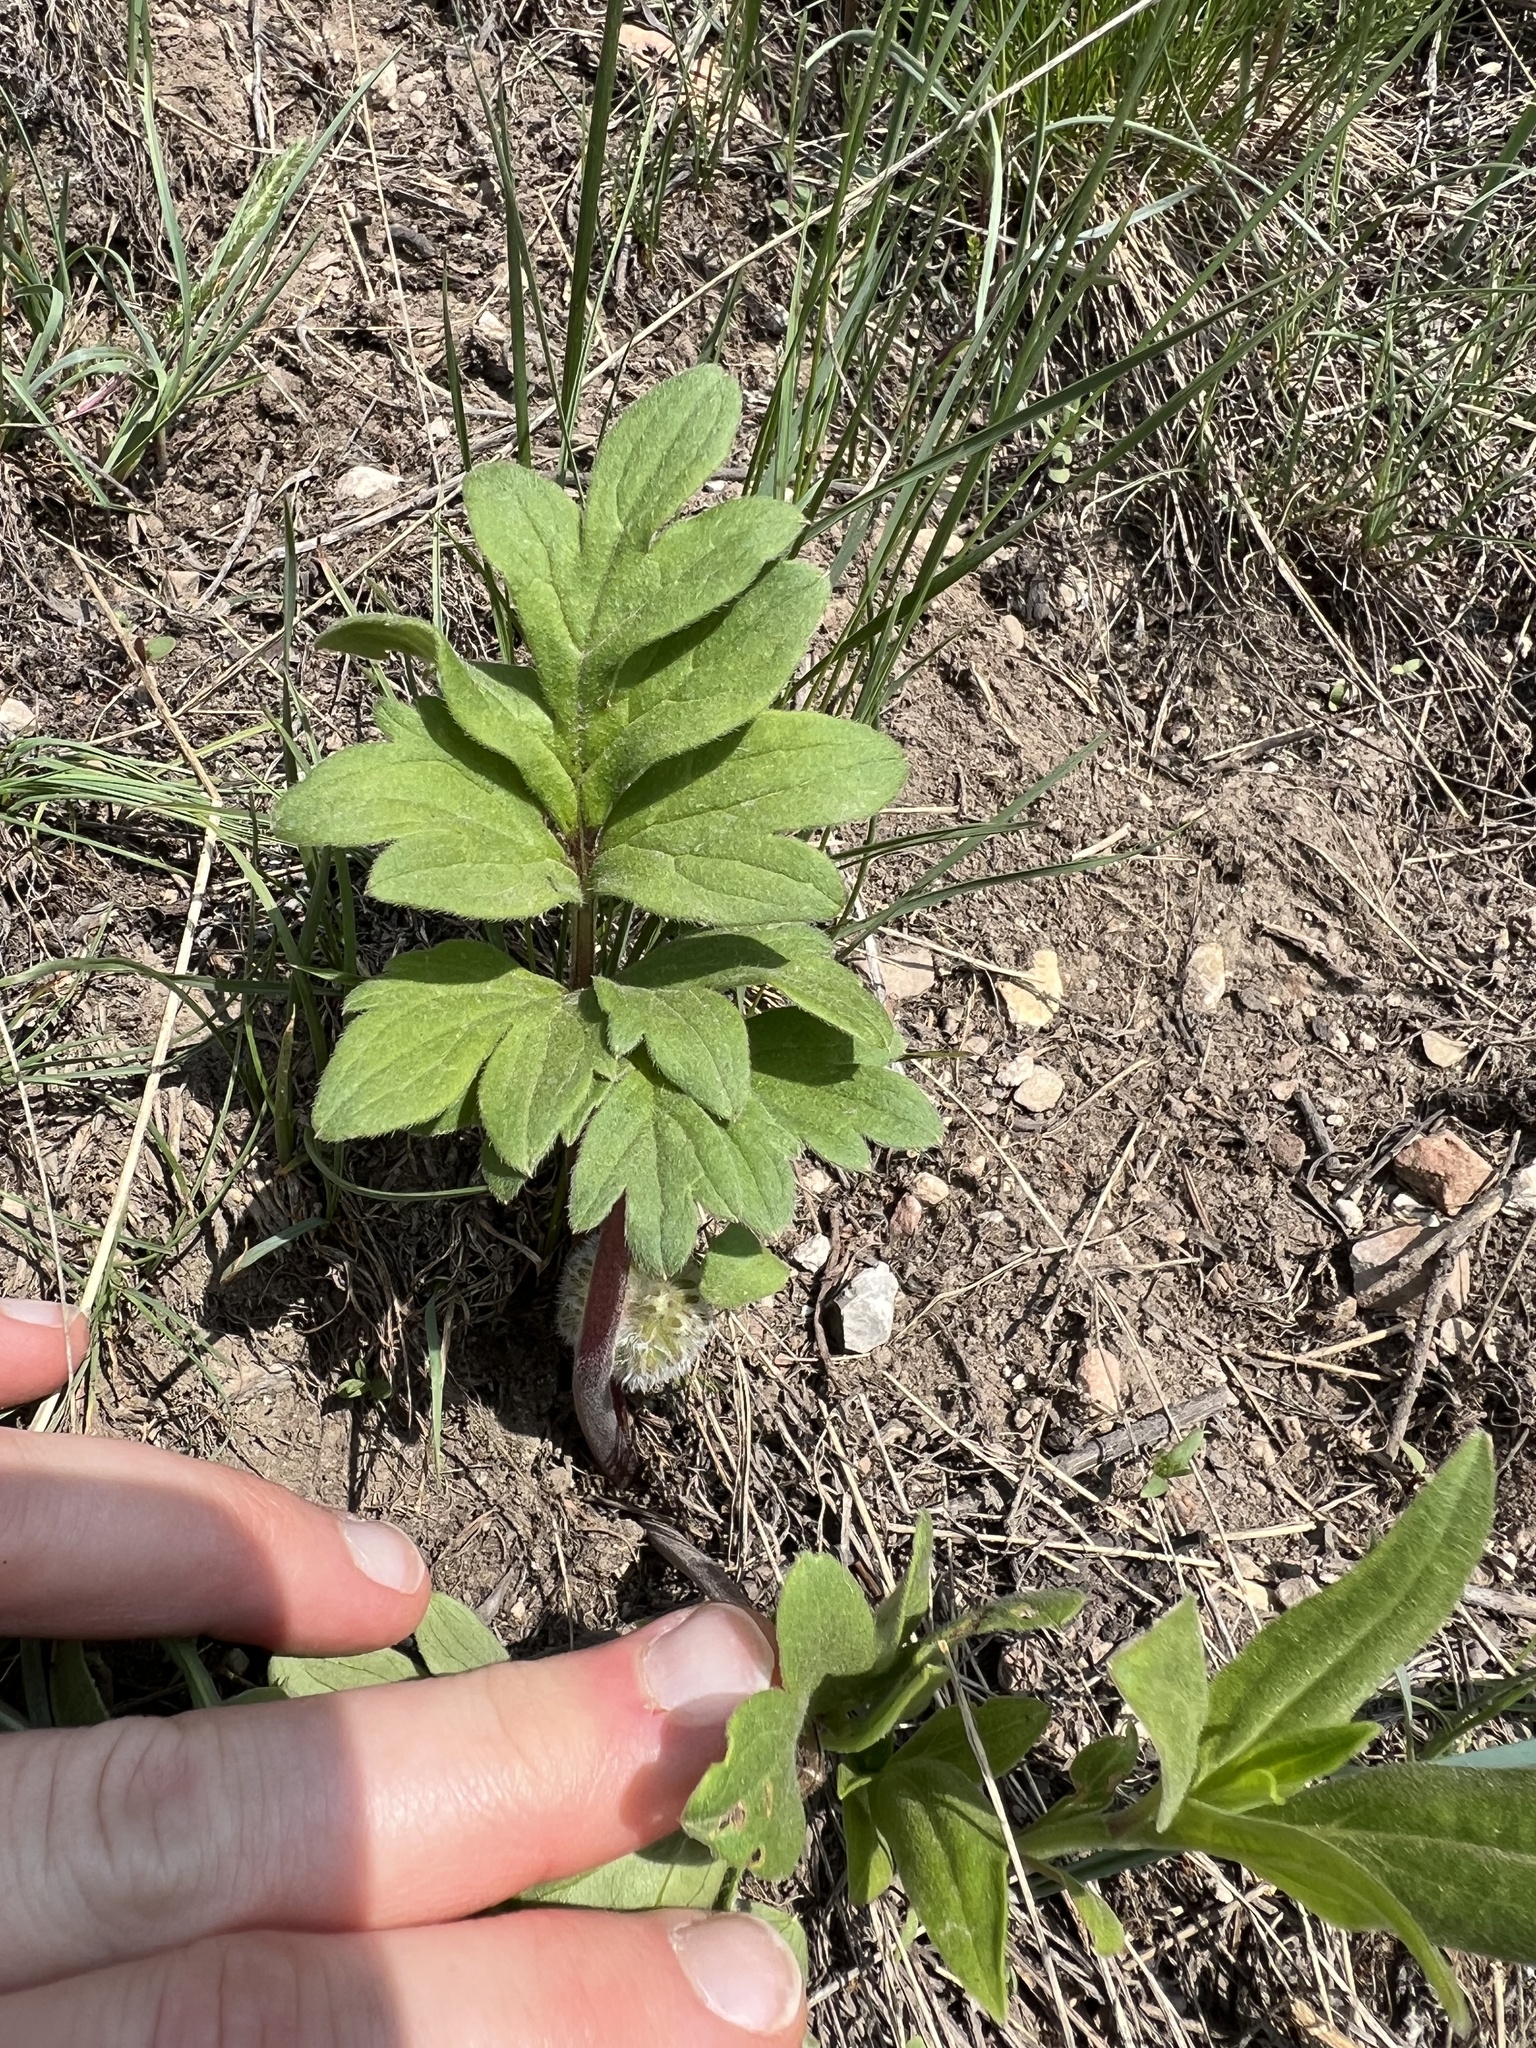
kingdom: Plantae
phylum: Tracheophyta
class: Magnoliopsida
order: Boraginales
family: Hydrophyllaceae
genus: Hydrophyllum
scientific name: Hydrophyllum capitatum
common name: Woollen-breeches
